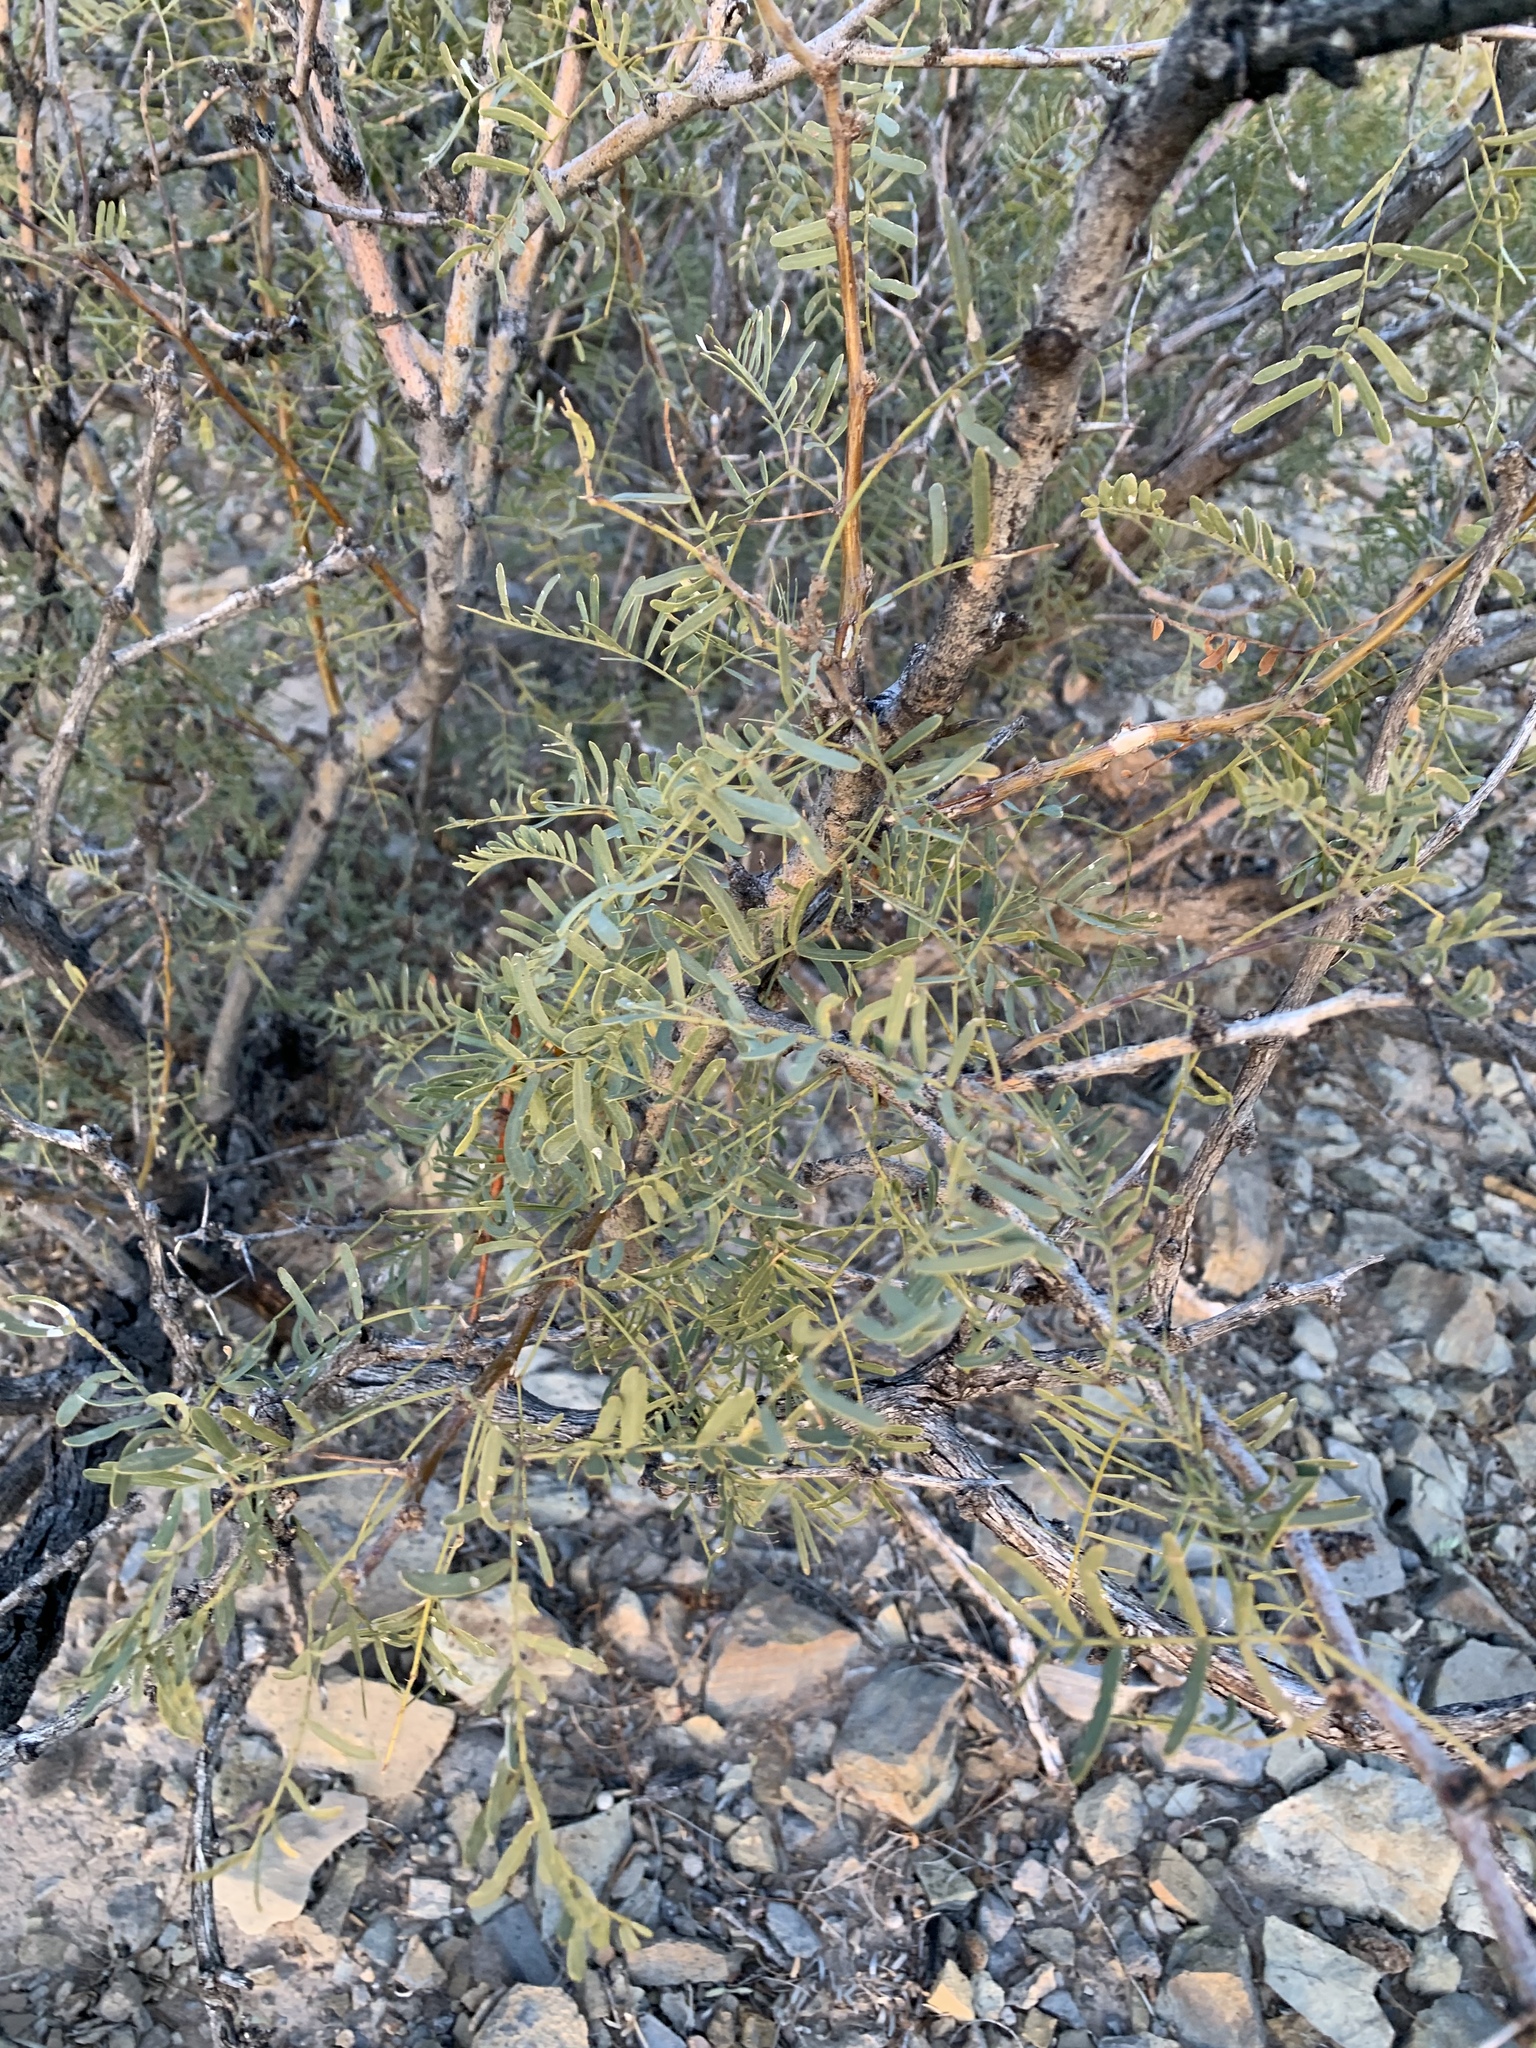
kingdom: Plantae
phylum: Tracheophyta
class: Magnoliopsida
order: Fabales
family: Fabaceae
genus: Prosopis
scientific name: Prosopis glandulosa
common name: Honey mesquite
